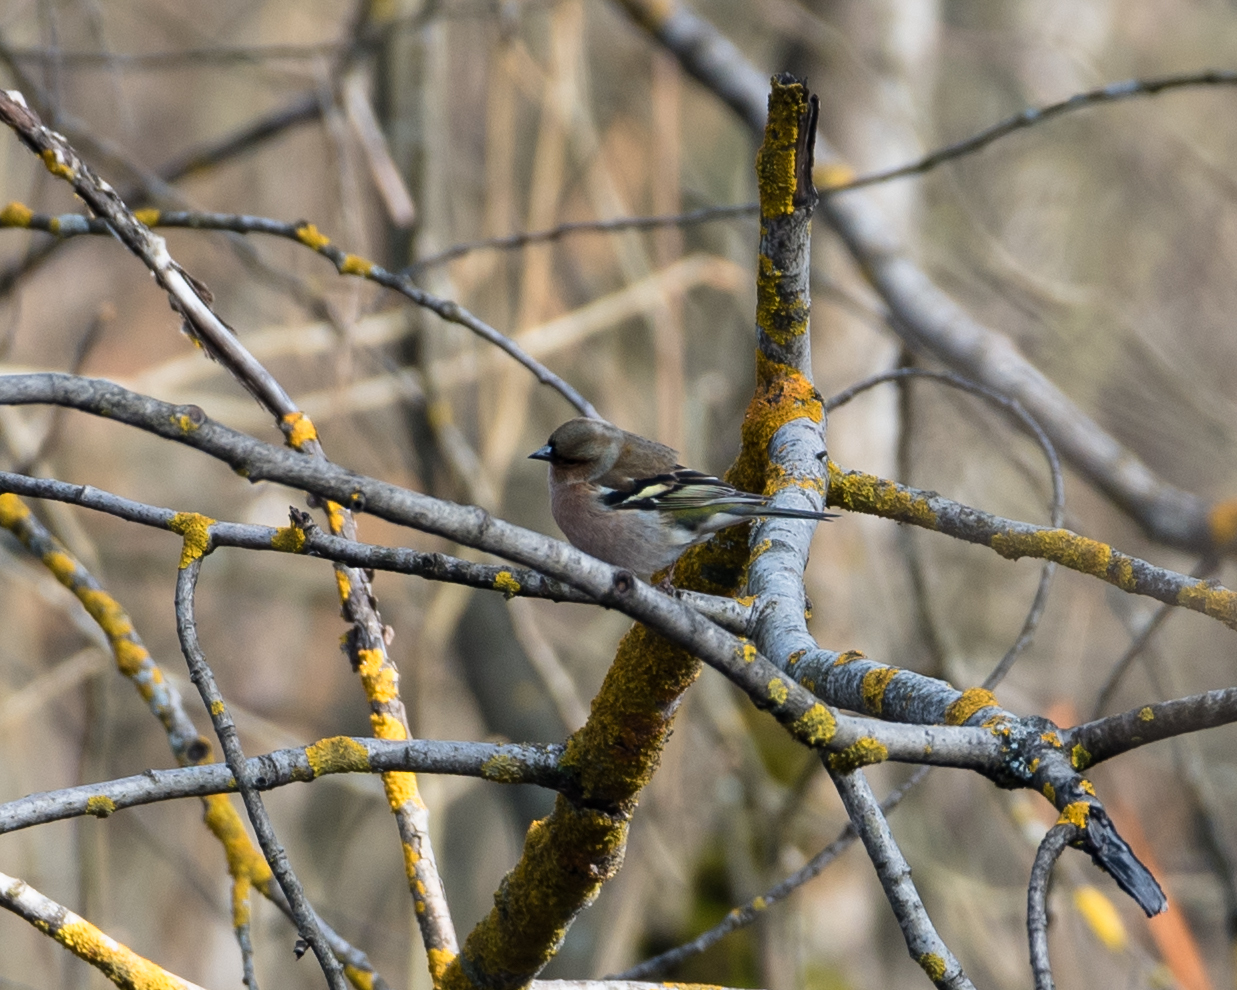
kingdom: Animalia
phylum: Chordata
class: Aves
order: Passeriformes
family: Fringillidae
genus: Fringilla
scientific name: Fringilla coelebs
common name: Common chaffinch
